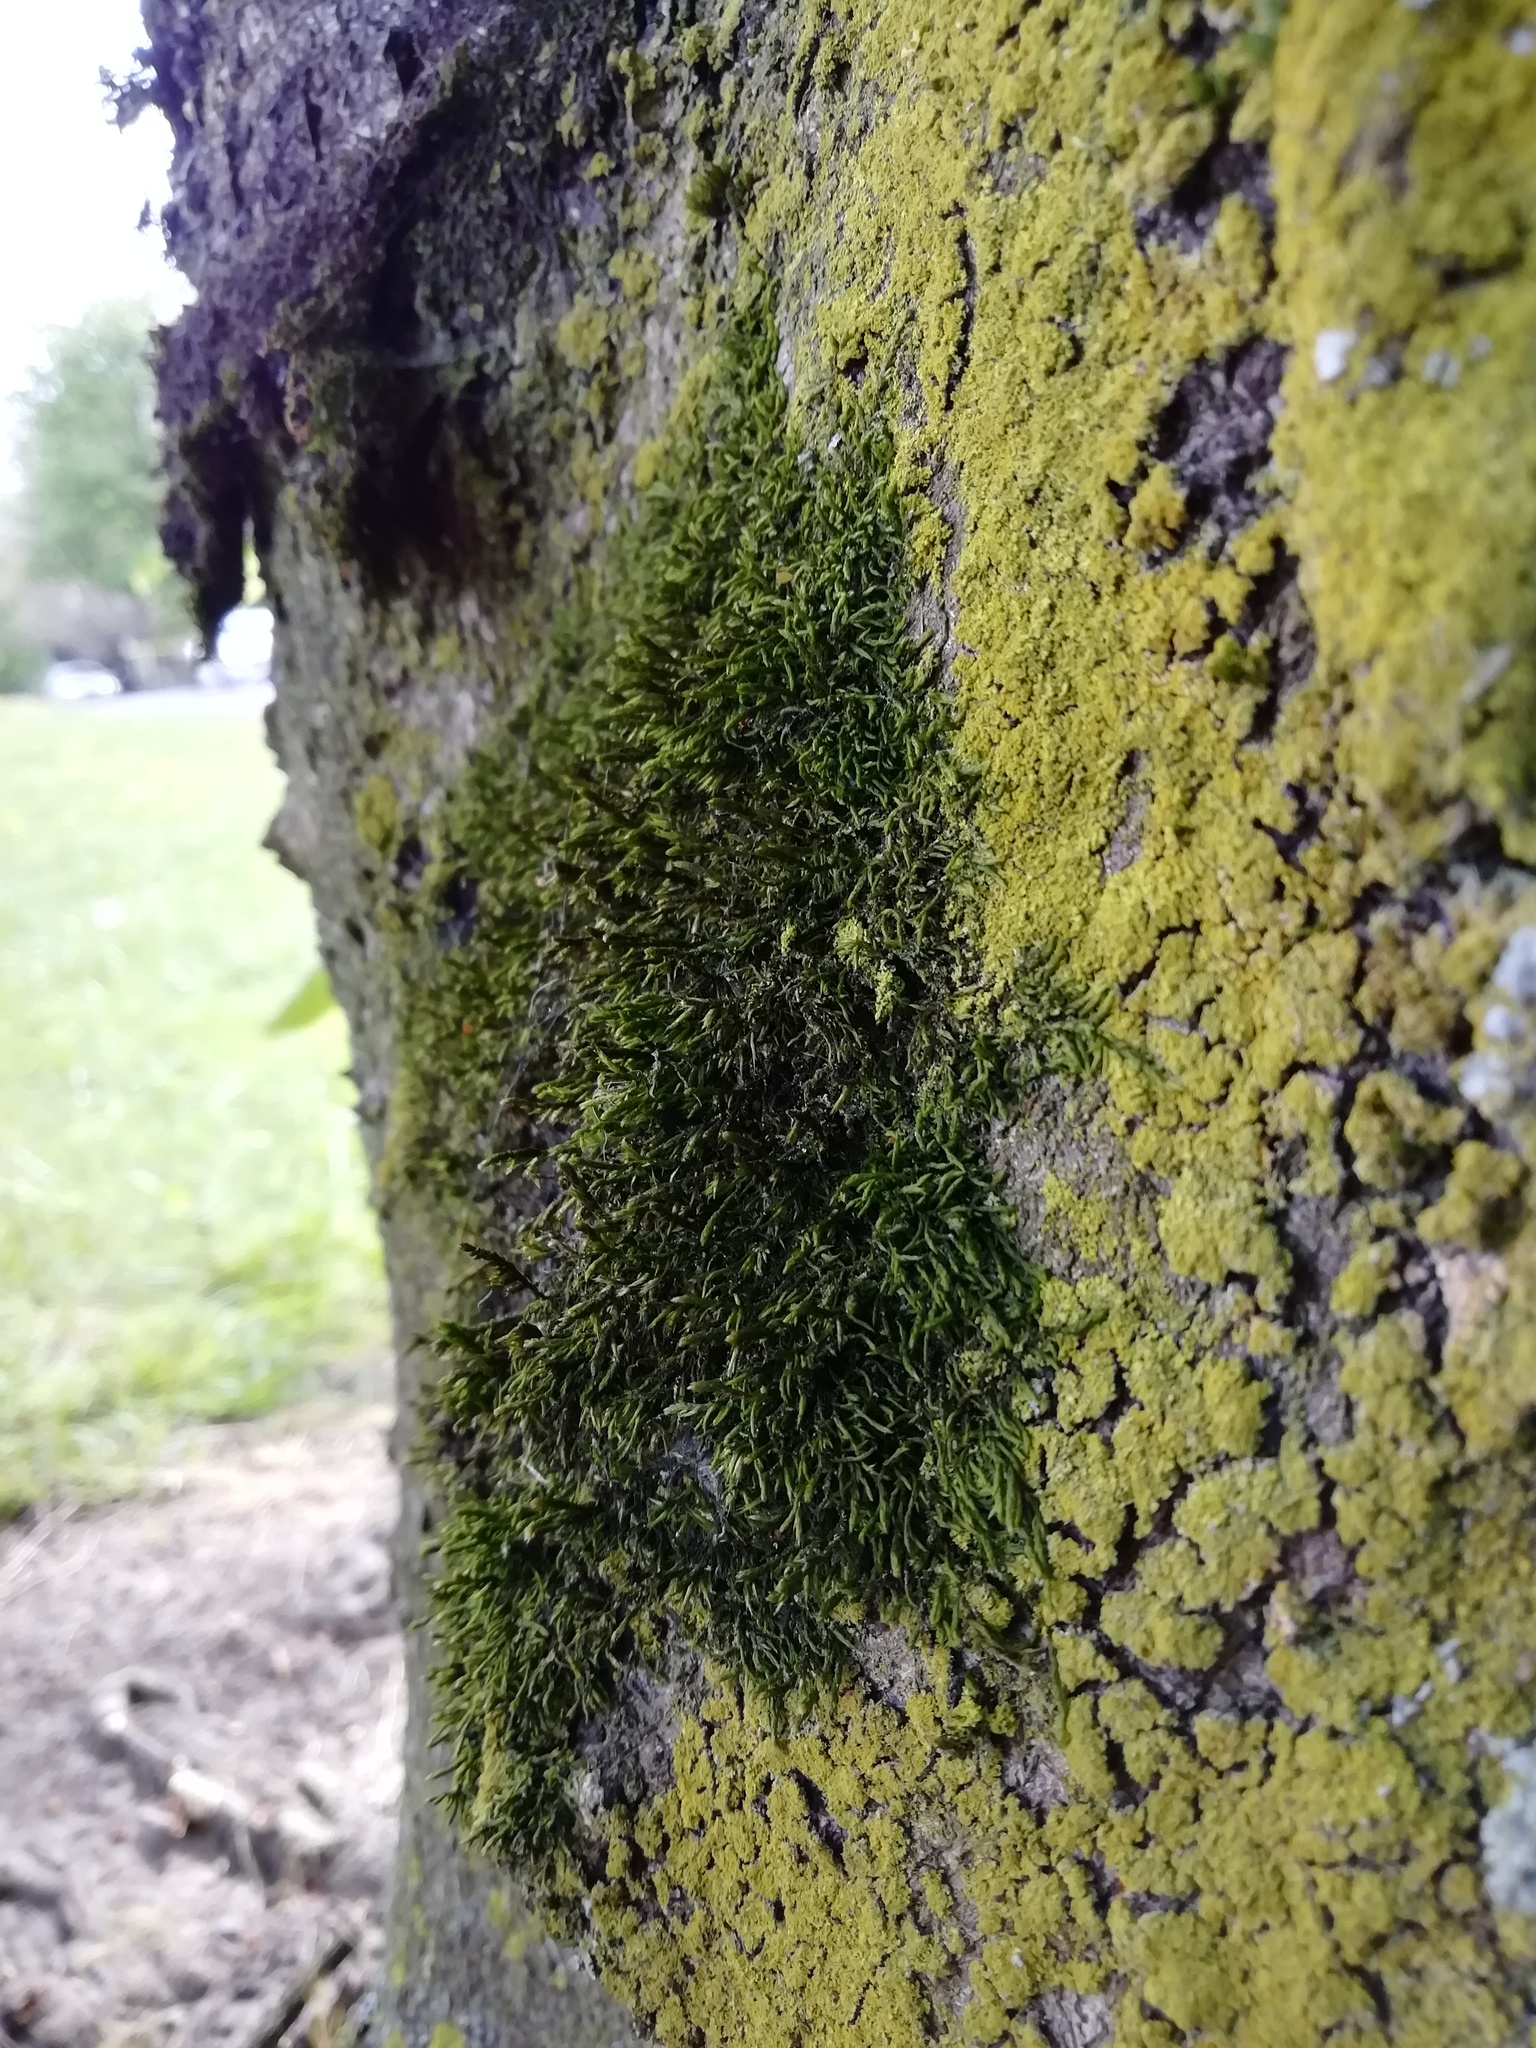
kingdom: Plantae
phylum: Bryophyta
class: Bryopsida
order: Hypnales
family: Cryphaeaceae
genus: Cryphaea
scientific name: Cryphaea heteromalla
